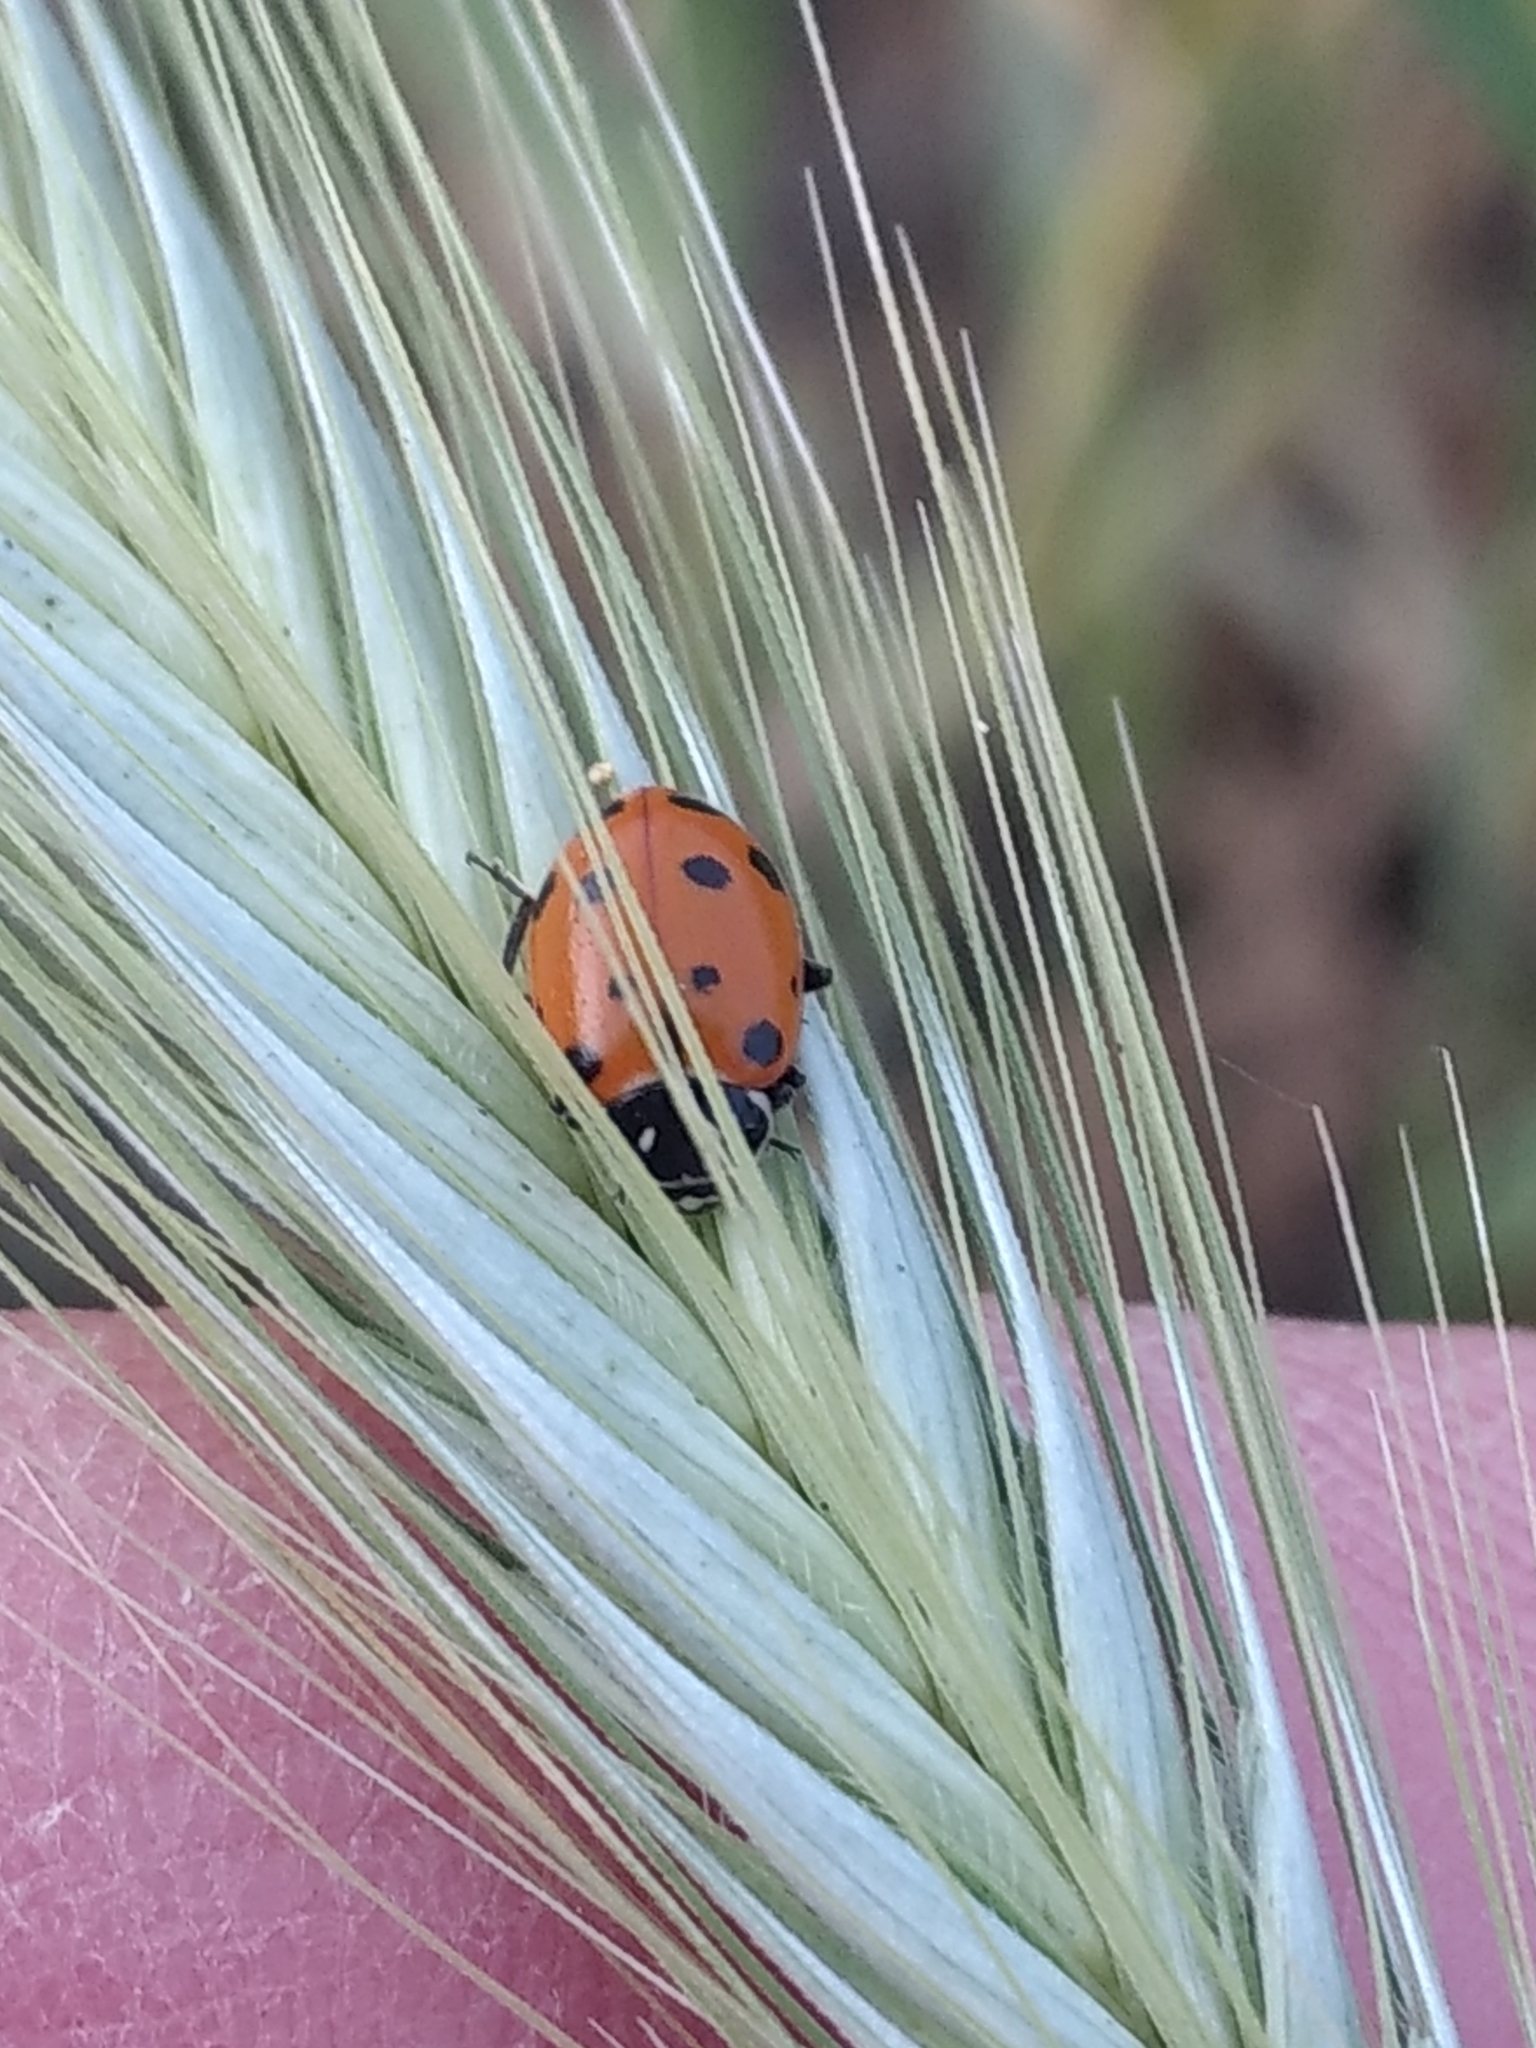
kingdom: Animalia
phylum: Arthropoda
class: Insecta
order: Coleoptera
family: Coccinellidae
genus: Hippodamia
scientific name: Hippodamia convergens
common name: Convergent lady beetle
